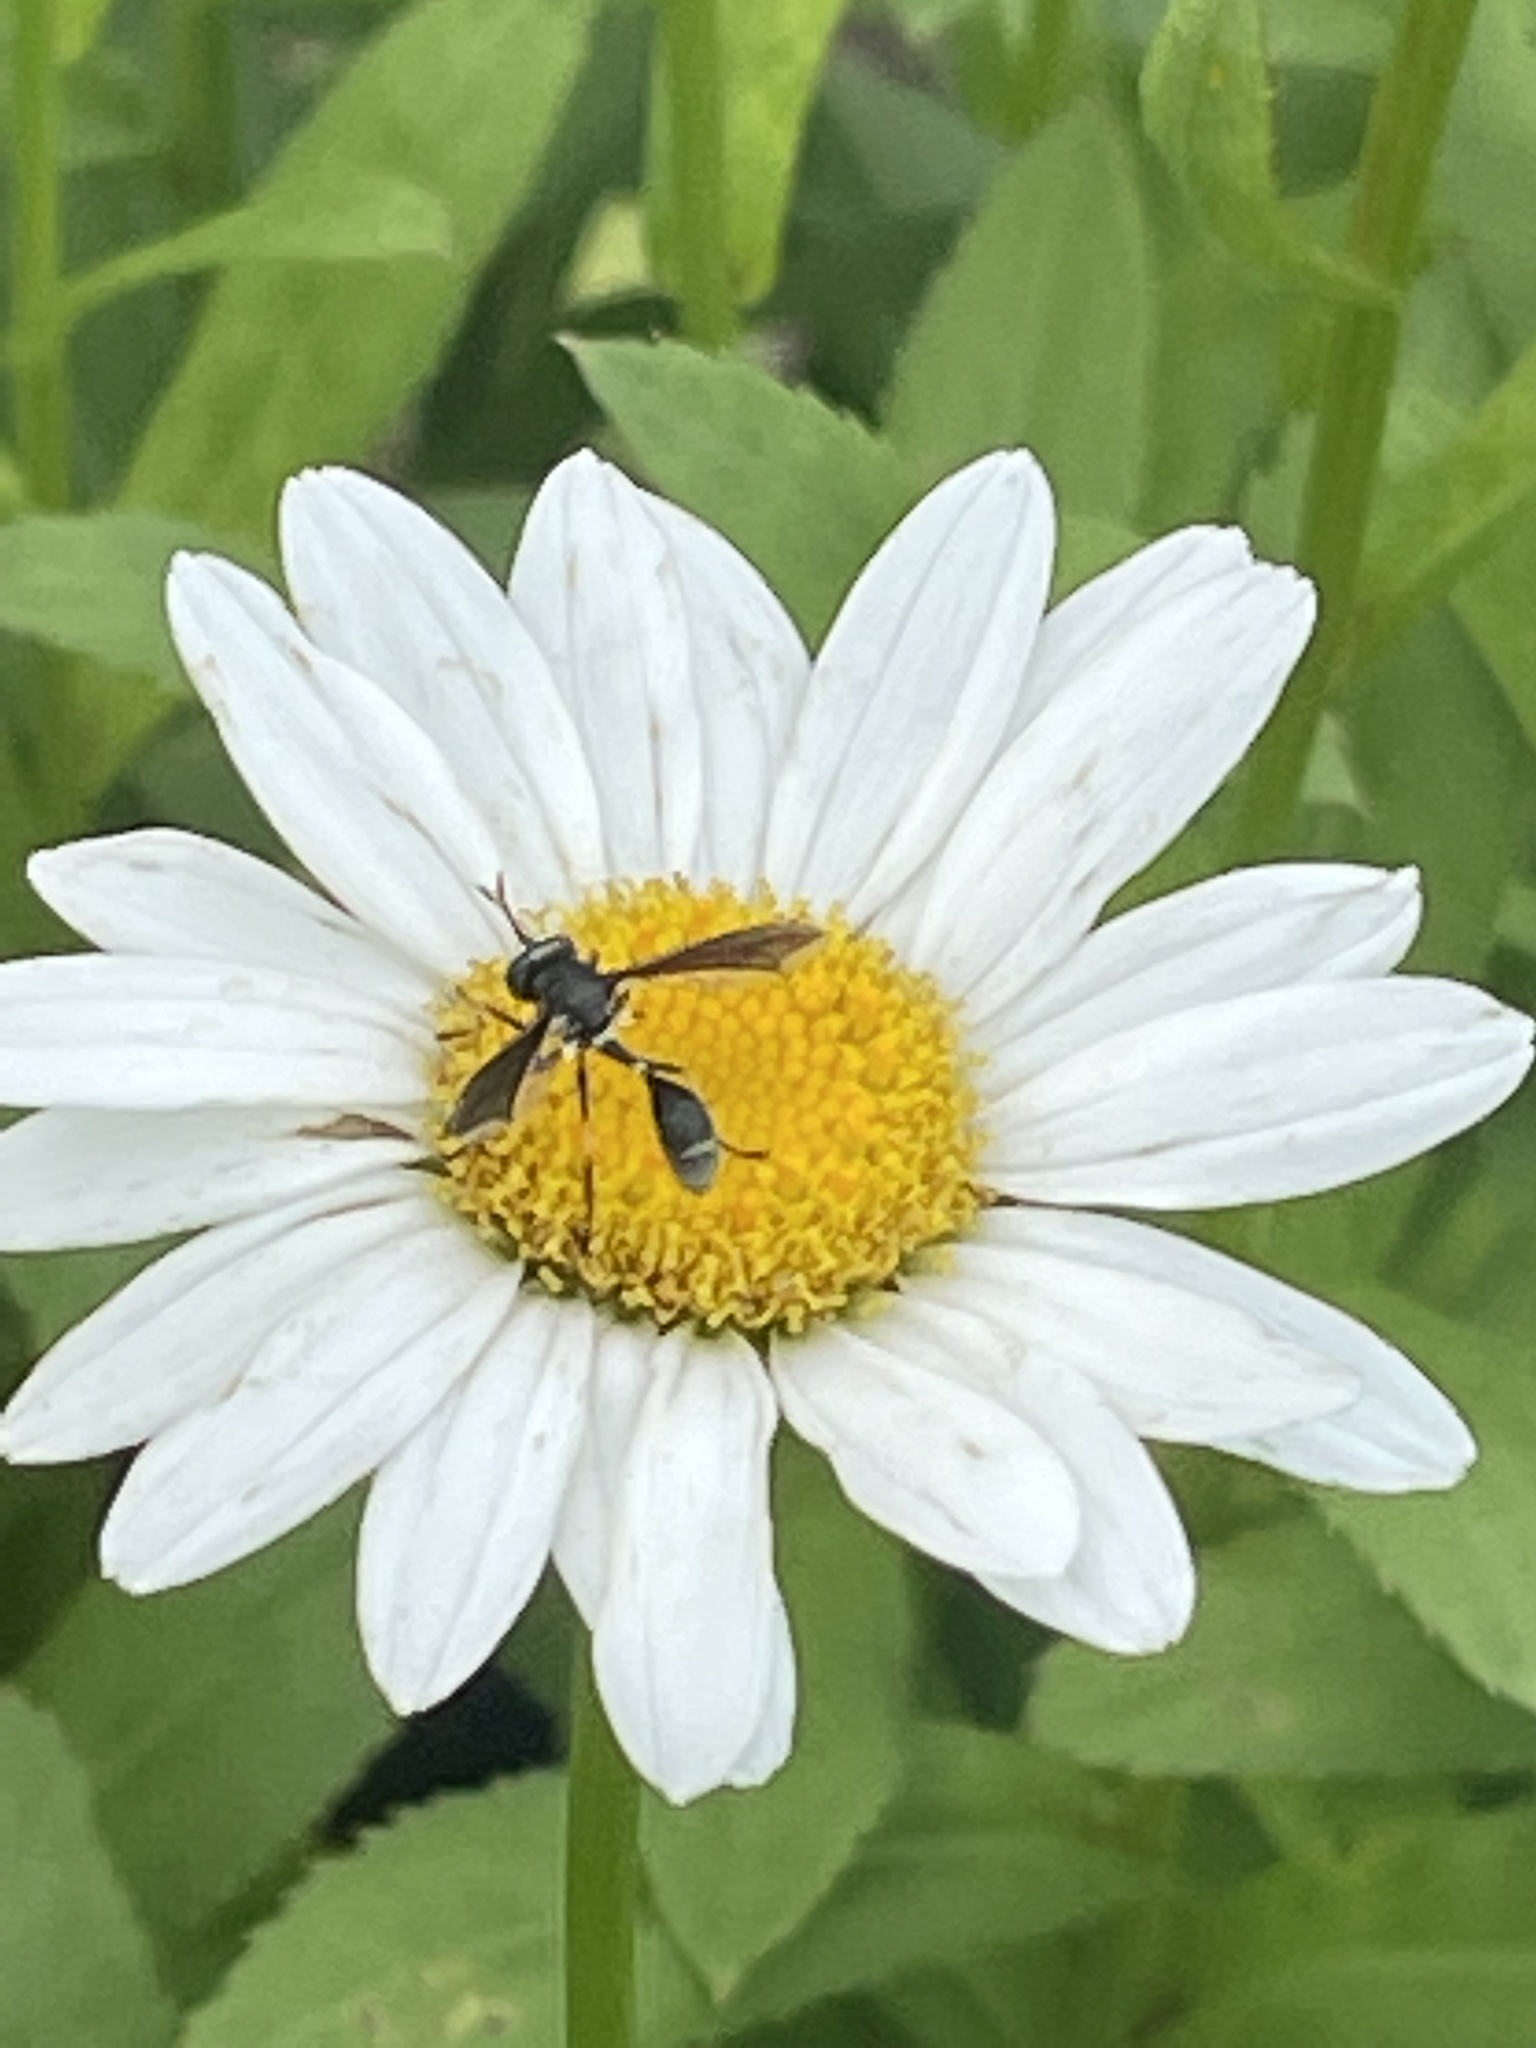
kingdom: Animalia
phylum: Arthropoda
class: Insecta
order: Diptera
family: Conopidae
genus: Physocephala
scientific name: Physocephala tibialis
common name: Common eastern physocephala
